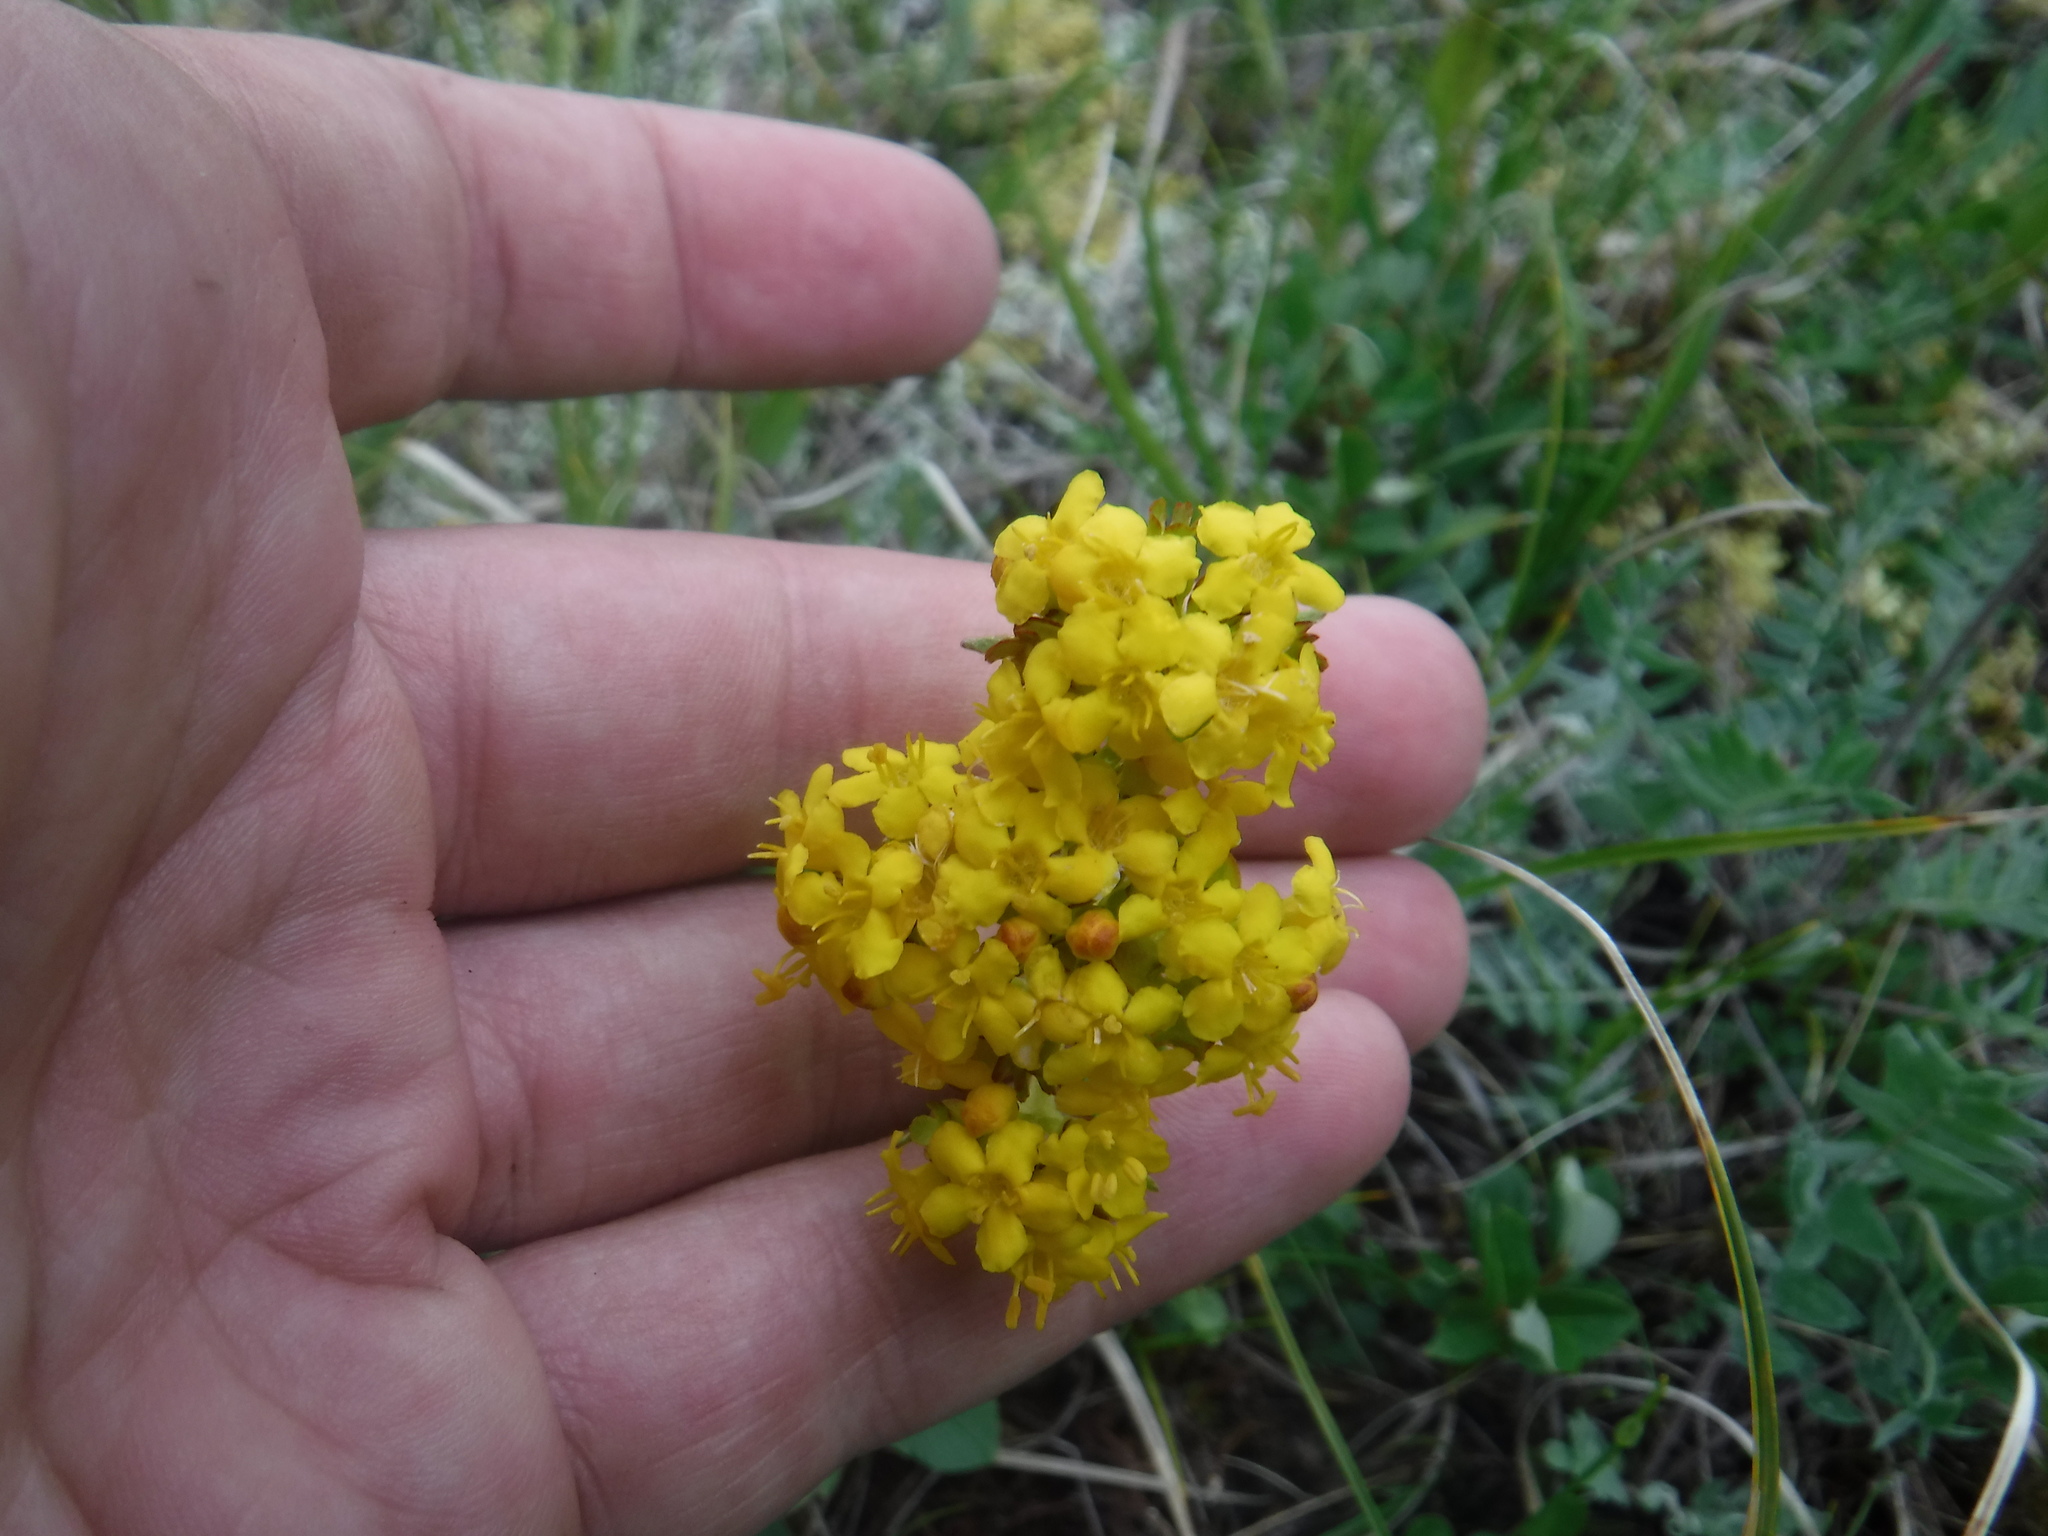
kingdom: Plantae
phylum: Tracheophyta
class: Magnoliopsida
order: Dipsacales
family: Caprifoliaceae
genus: Patrinia
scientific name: Patrinia sibirica
